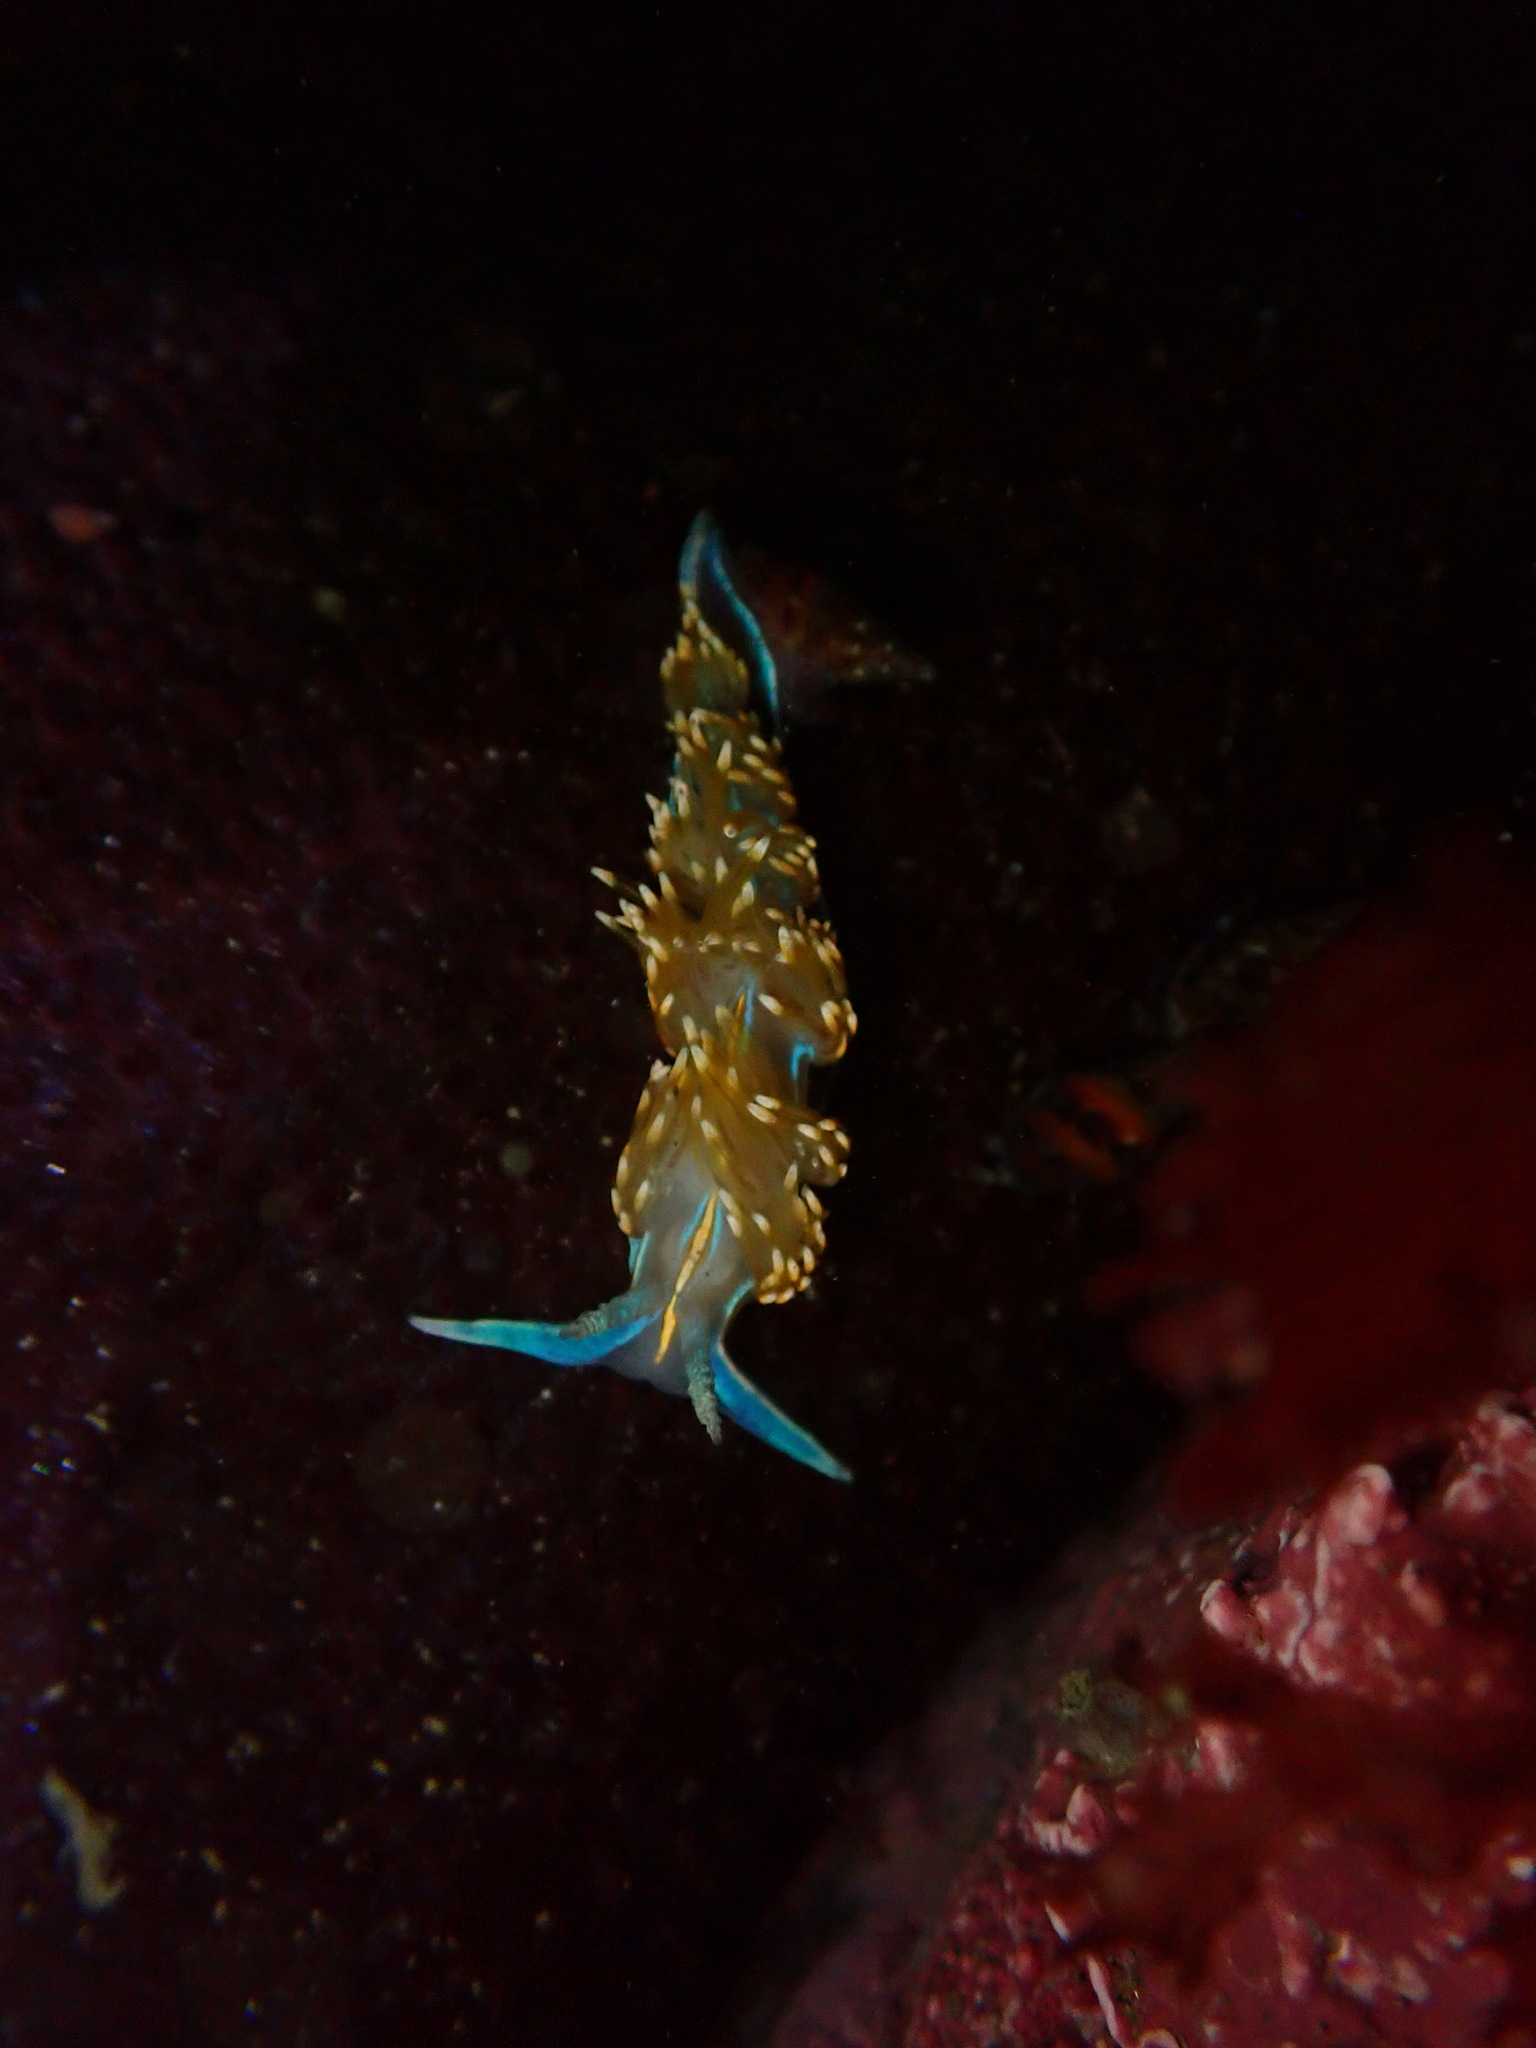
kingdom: Animalia
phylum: Mollusca
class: Gastropoda
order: Nudibranchia
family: Myrrhinidae
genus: Hermissenda
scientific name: Hermissenda opalescens
